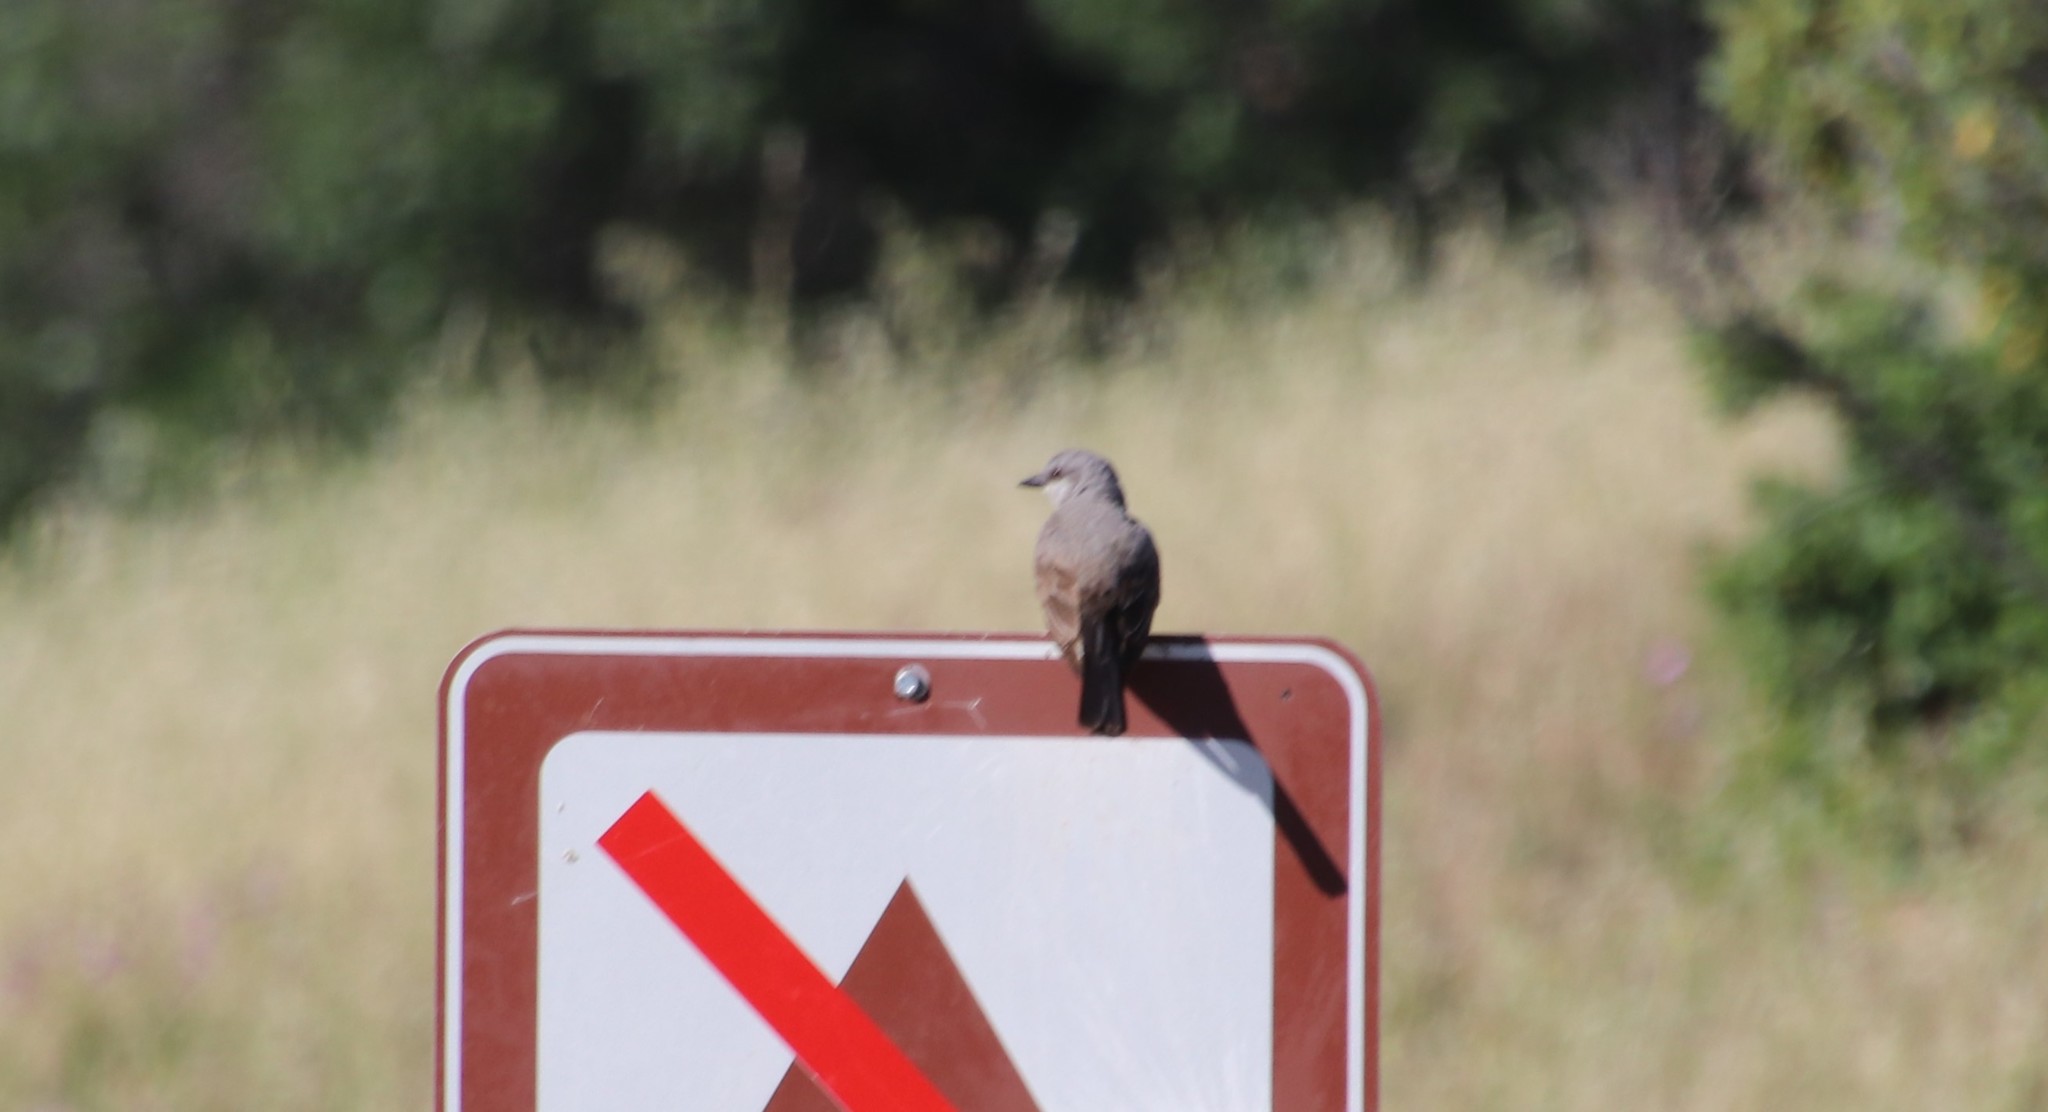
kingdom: Animalia
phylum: Chordata
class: Aves
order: Passeriformes
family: Tyrannidae
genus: Tyrannus
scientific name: Tyrannus verticalis
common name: Western kingbird
